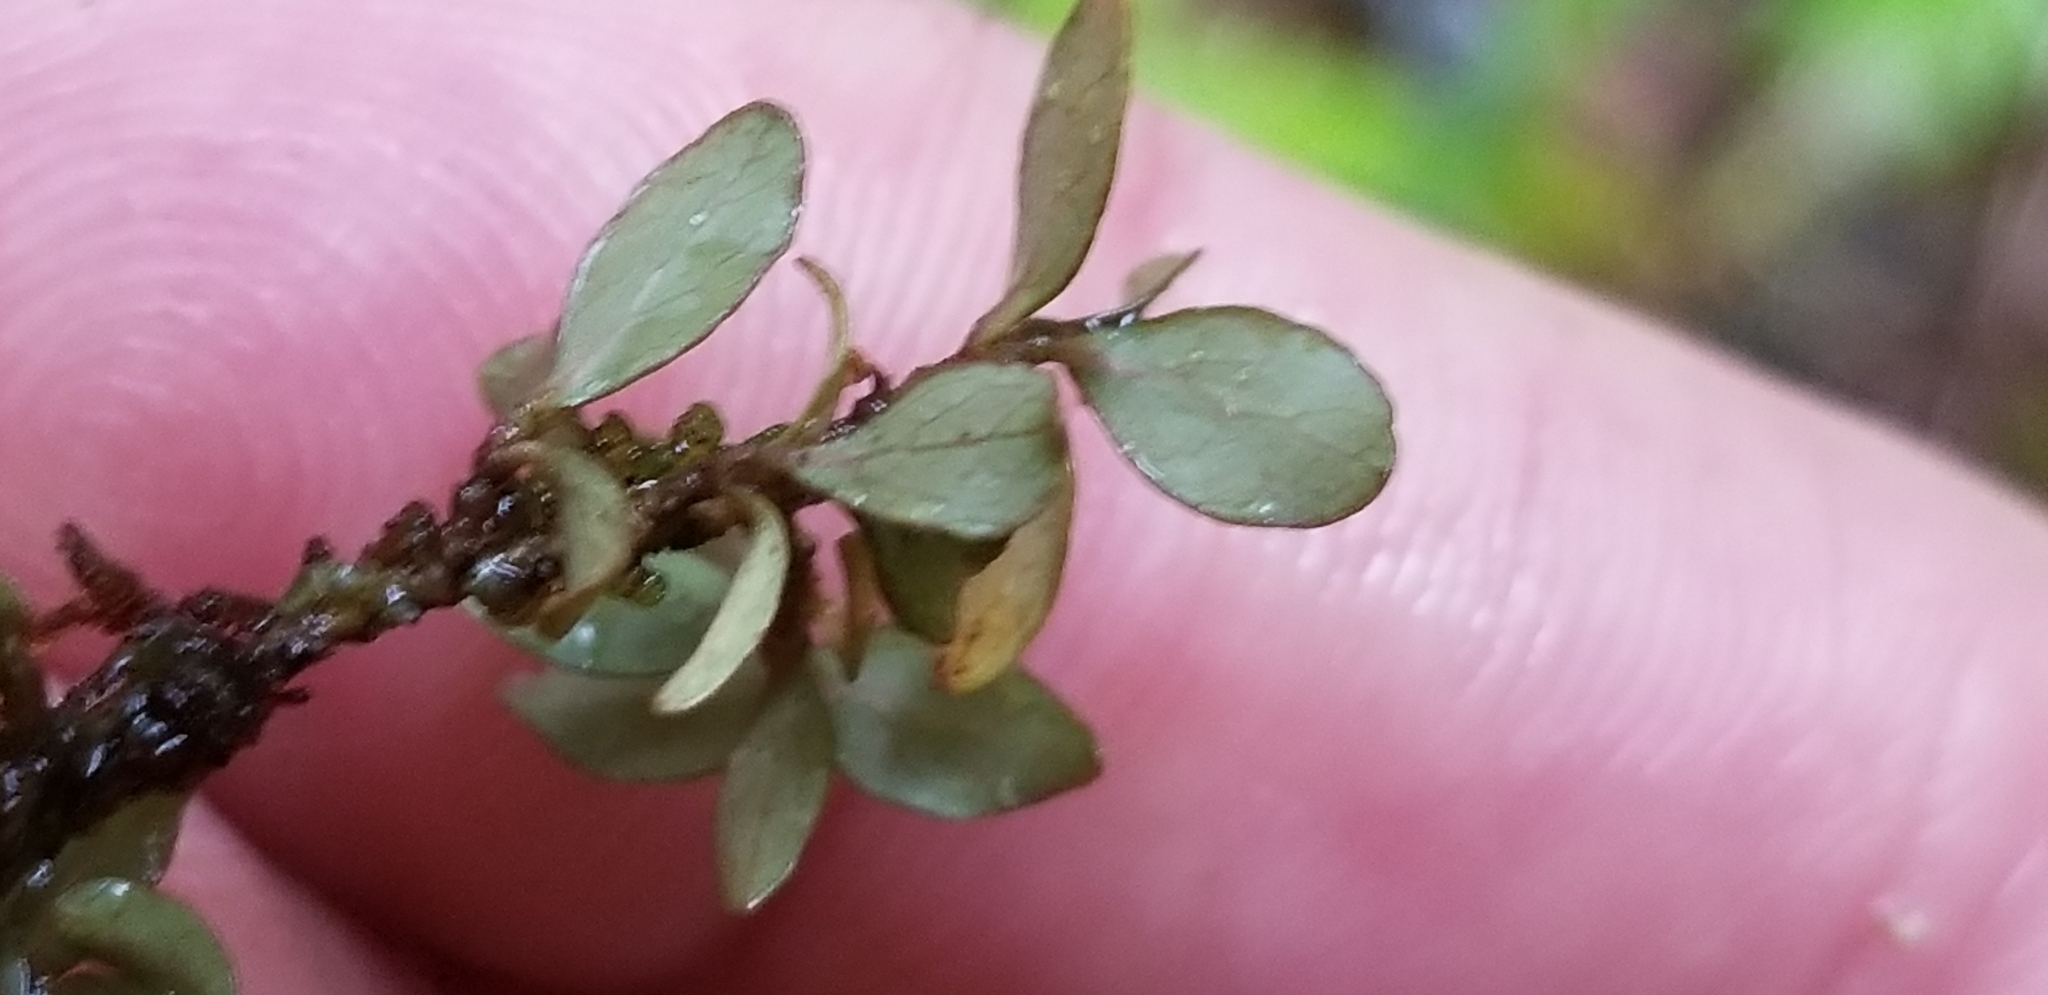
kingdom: Plantae
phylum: Tracheophyta
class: Magnoliopsida
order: Myrtales
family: Myrtaceae
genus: Neomyrtus
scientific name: Neomyrtus pedunculata
